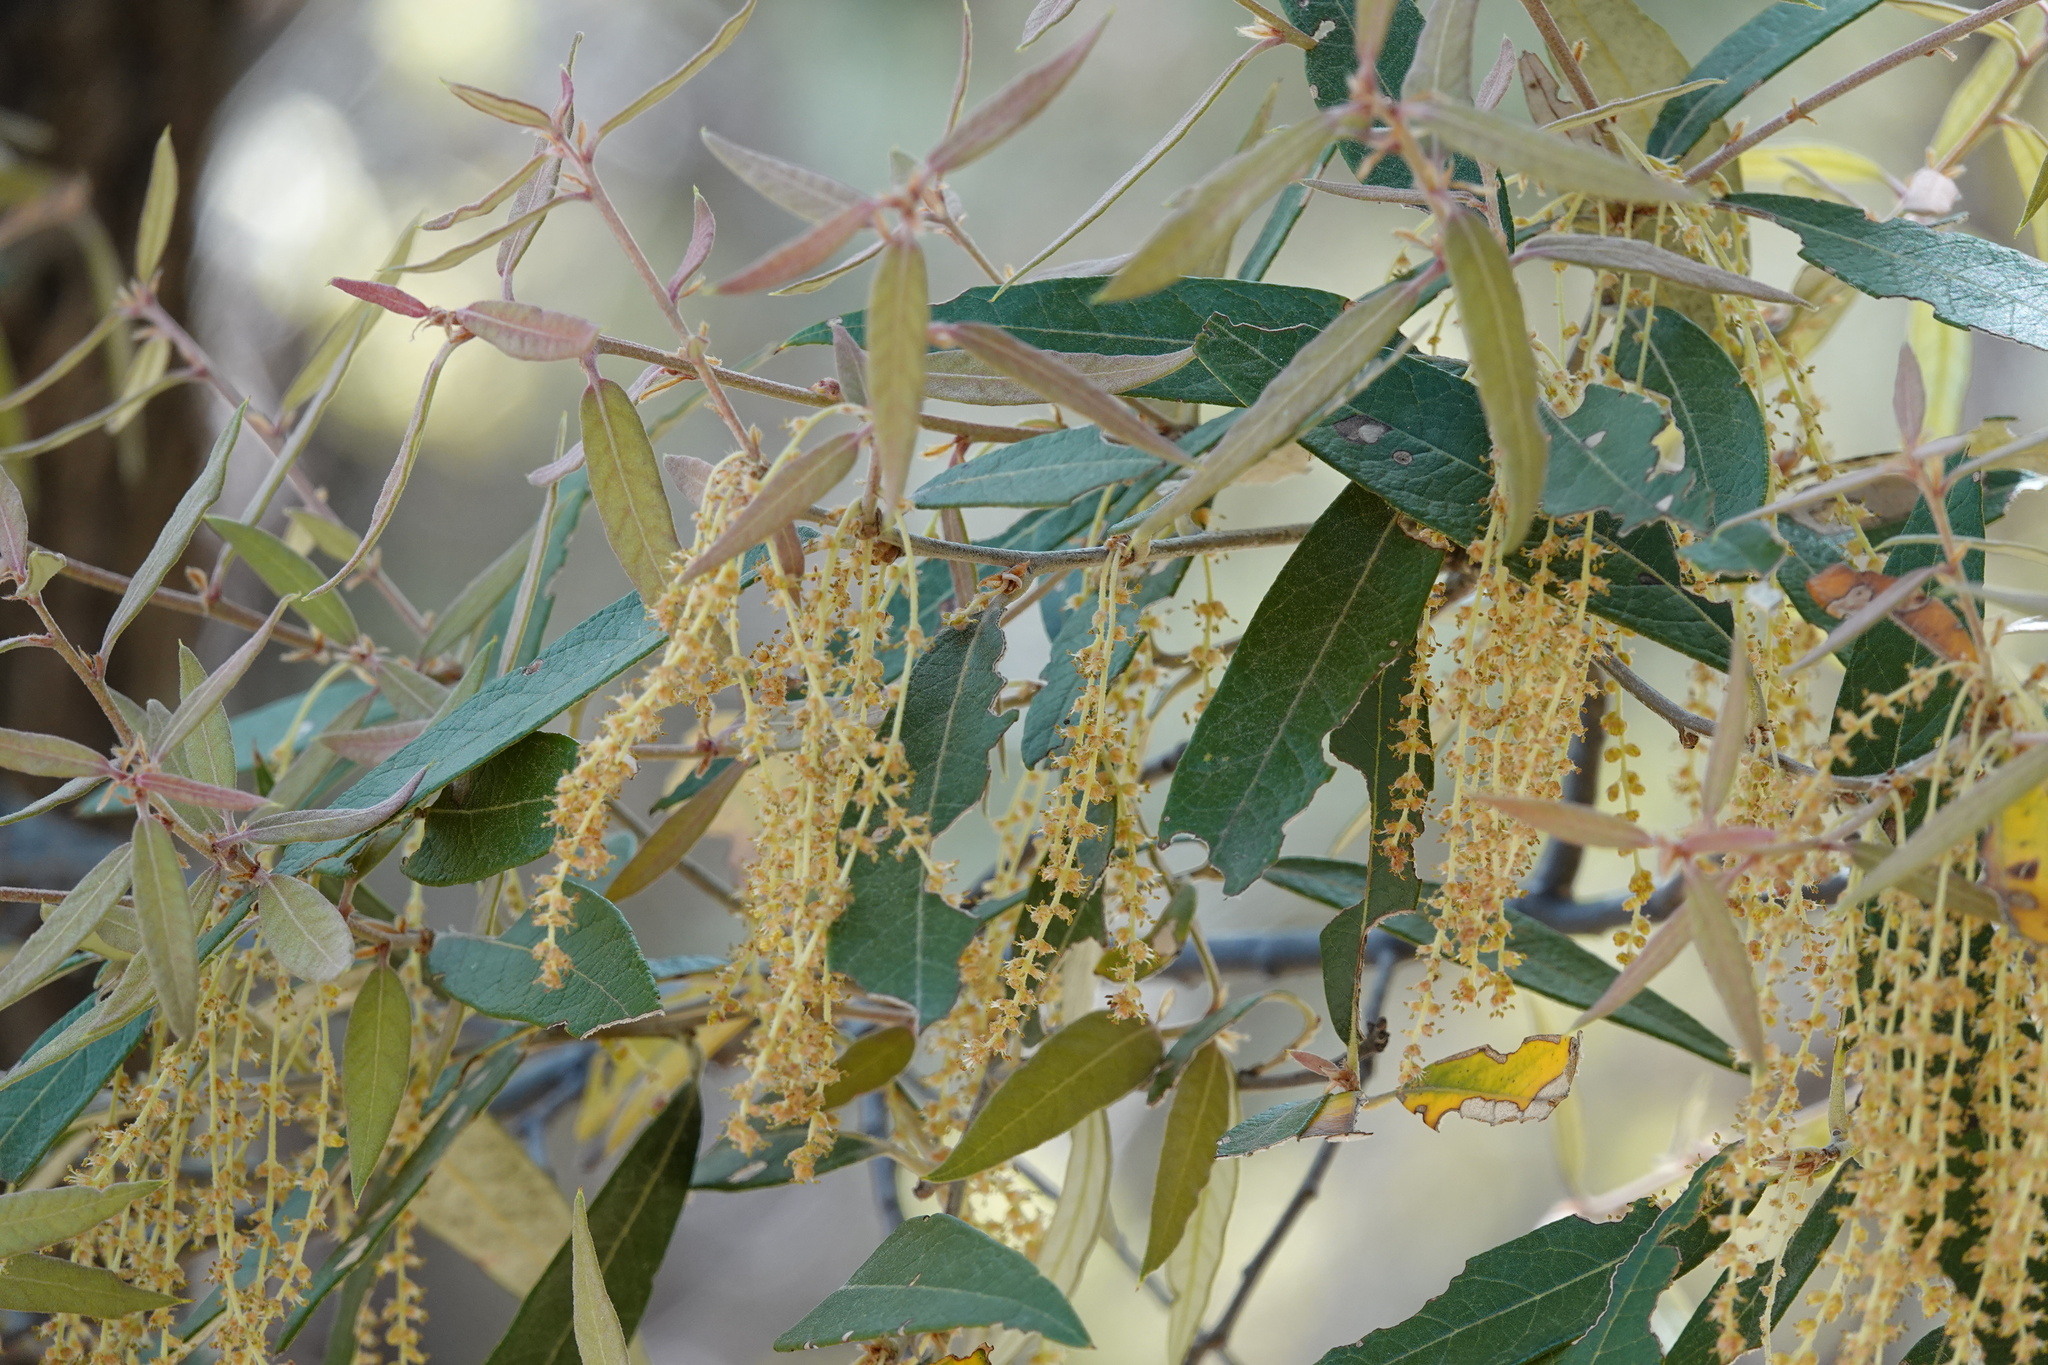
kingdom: Plantae
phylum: Tracheophyta
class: Magnoliopsida
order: Fagales
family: Fagaceae
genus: Quercus
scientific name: Quercus hypoleucoides
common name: Silverleaf oak
